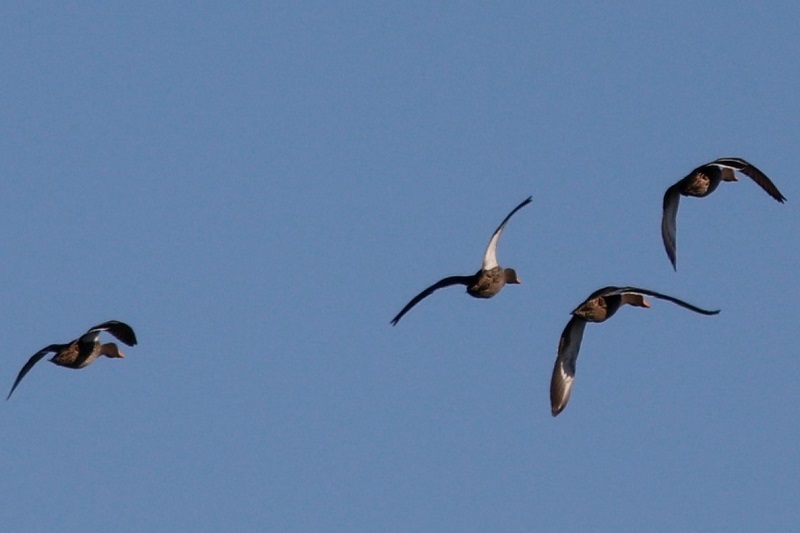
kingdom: Animalia
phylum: Chordata
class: Aves
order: Anseriformes
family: Anatidae
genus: Anas
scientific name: Anas undulata
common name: Yellow-billed duck
